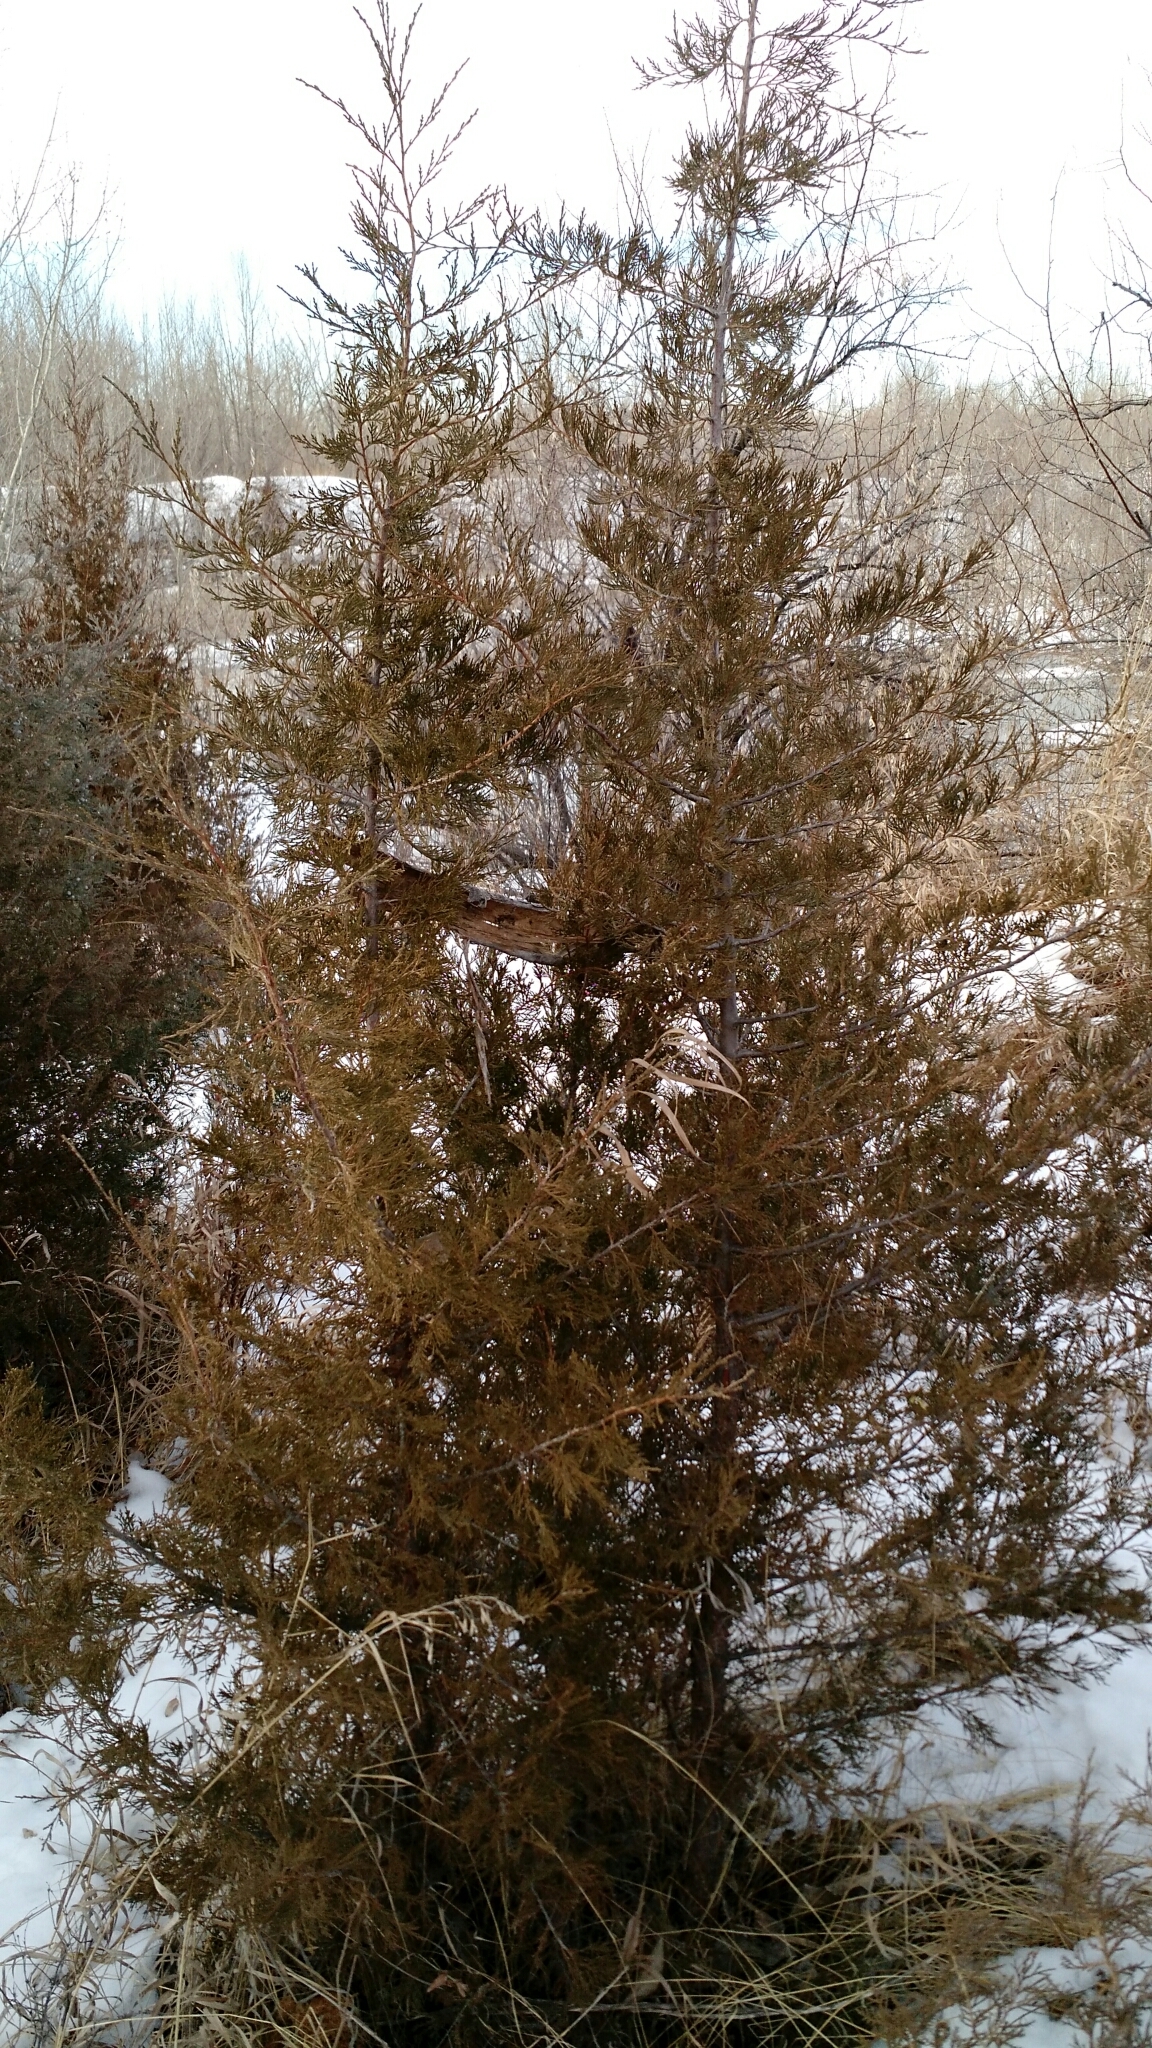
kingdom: Plantae
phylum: Tracheophyta
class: Pinopsida
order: Pinales
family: Cupressaceae
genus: Juniperus
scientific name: Juniperus scopulorum
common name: Rocky mountain juniper
